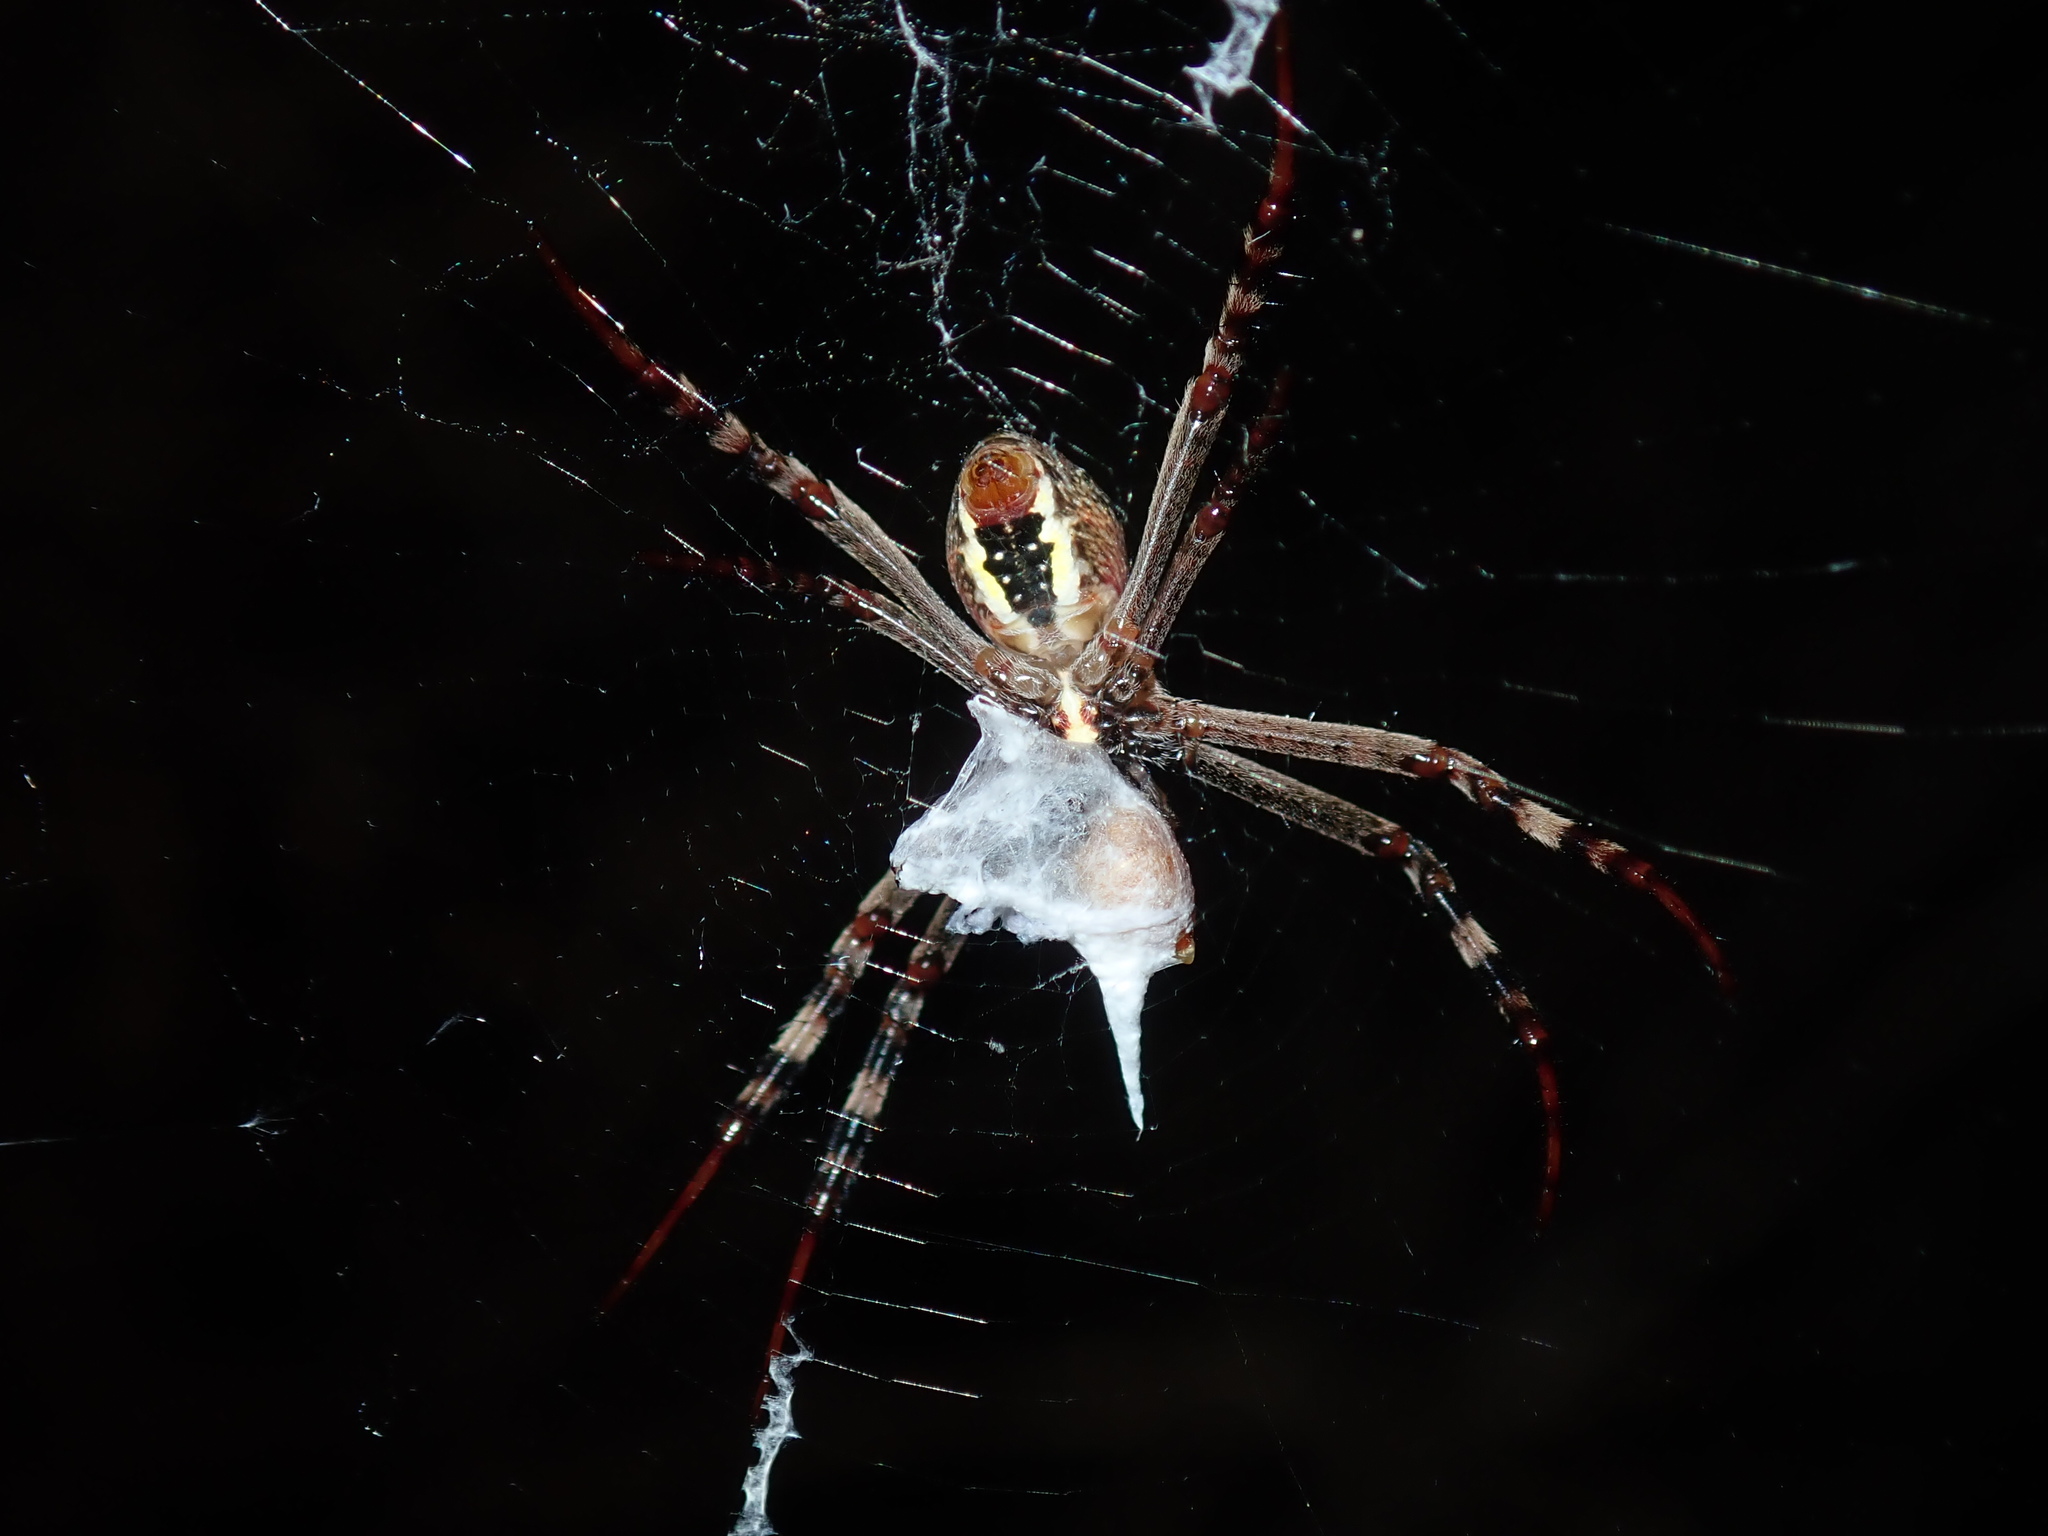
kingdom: Animalia
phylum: Arthropoda
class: Arachnida
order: Araneae
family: Araneidae
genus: Argiope
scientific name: Argiope keyserlingi
